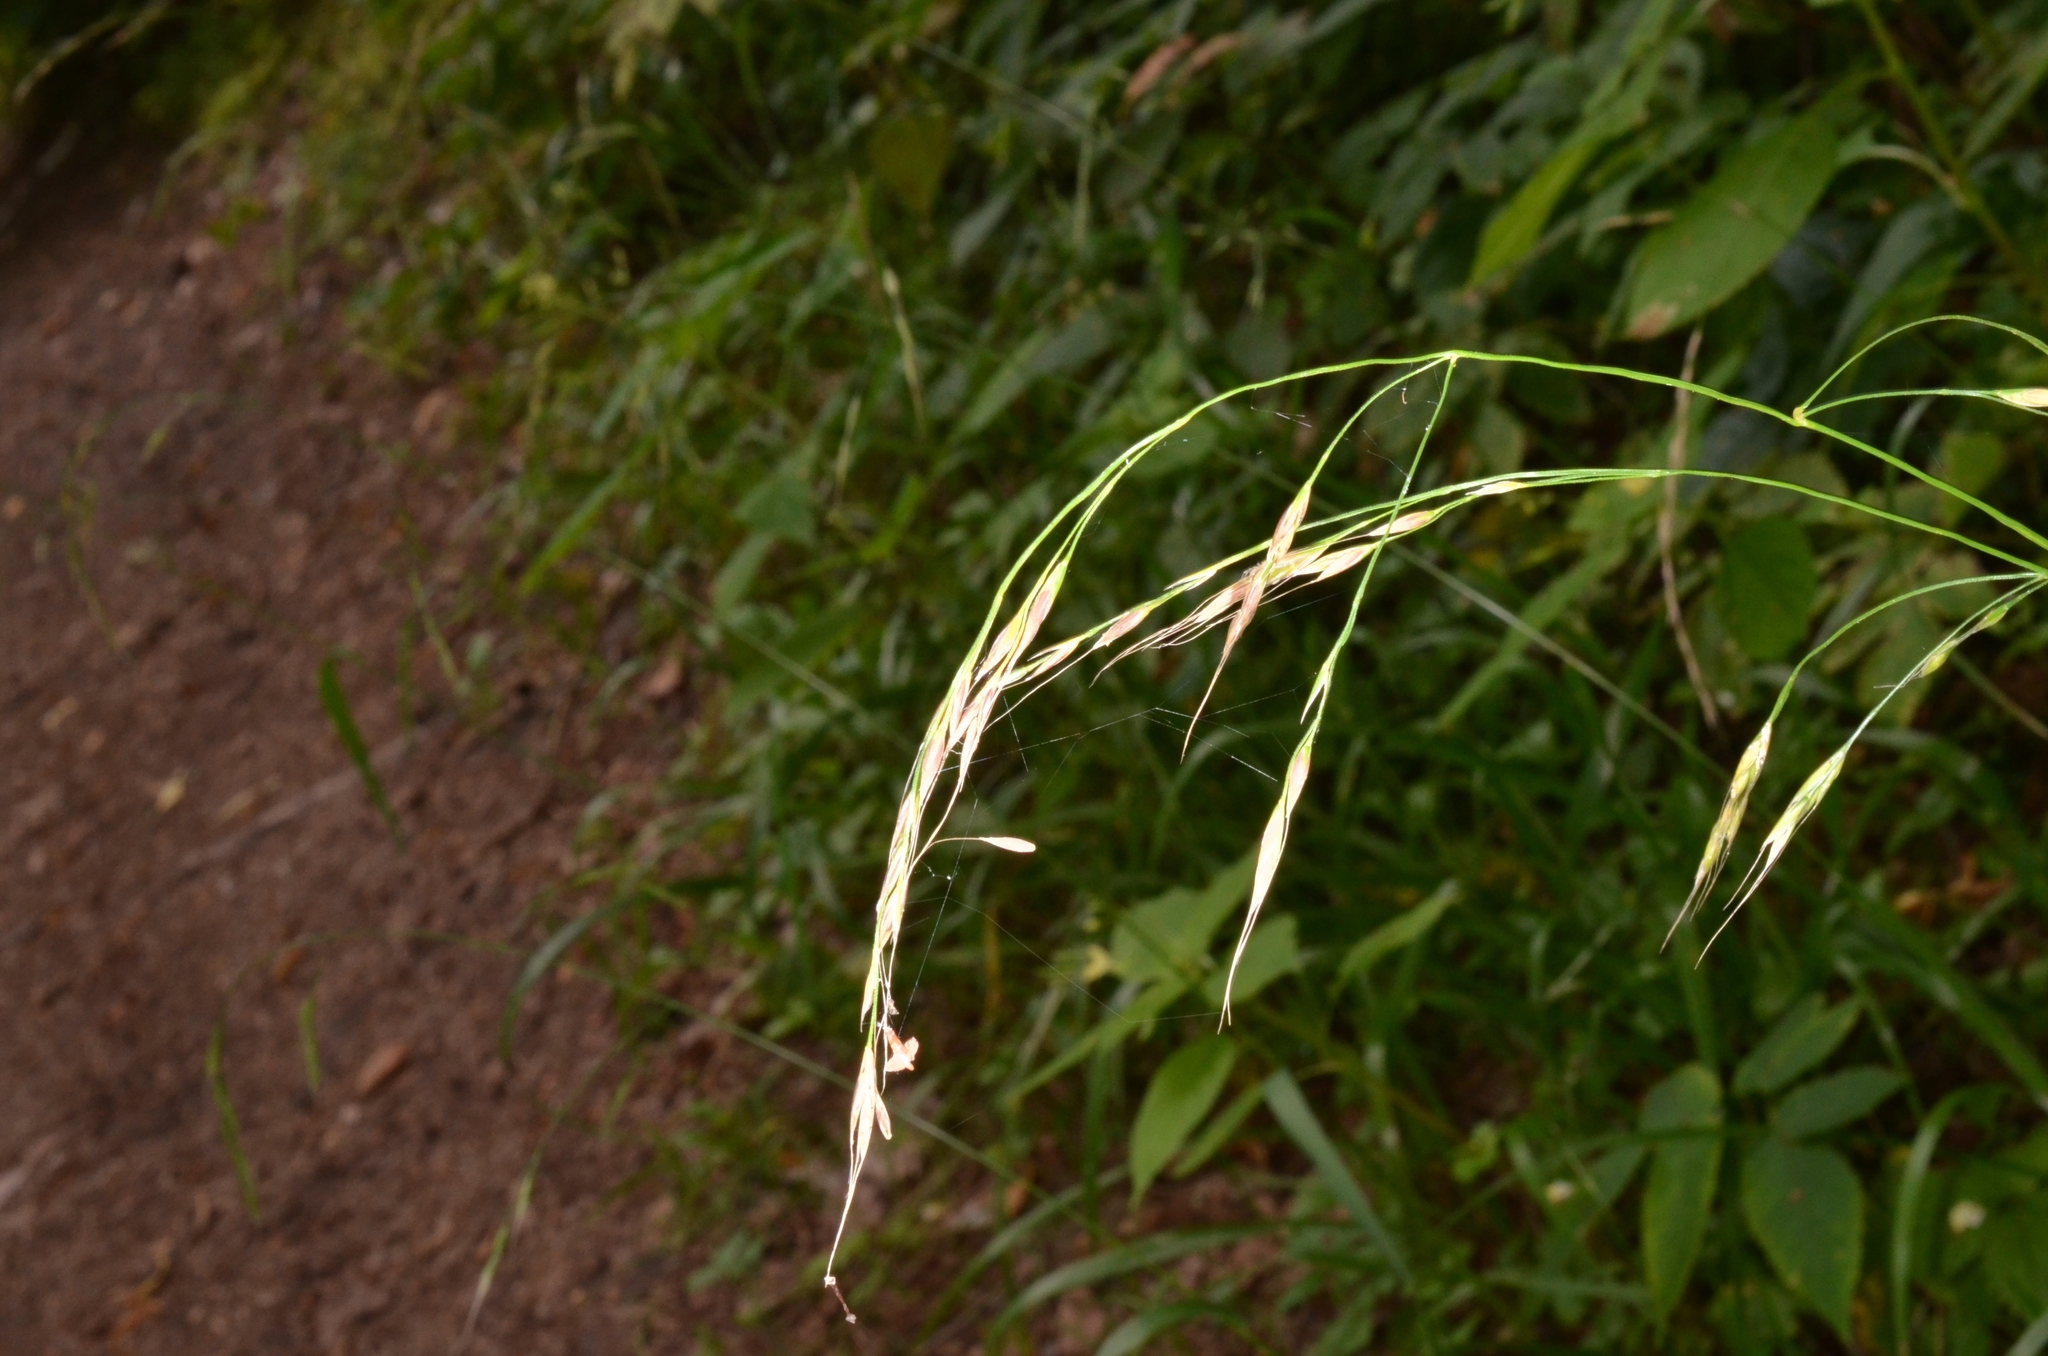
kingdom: Plantae
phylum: Tracheophyta
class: Liliopsida
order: Poales
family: Poaceae
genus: Lolium
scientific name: Lolium giganteum
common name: Giant fescue
